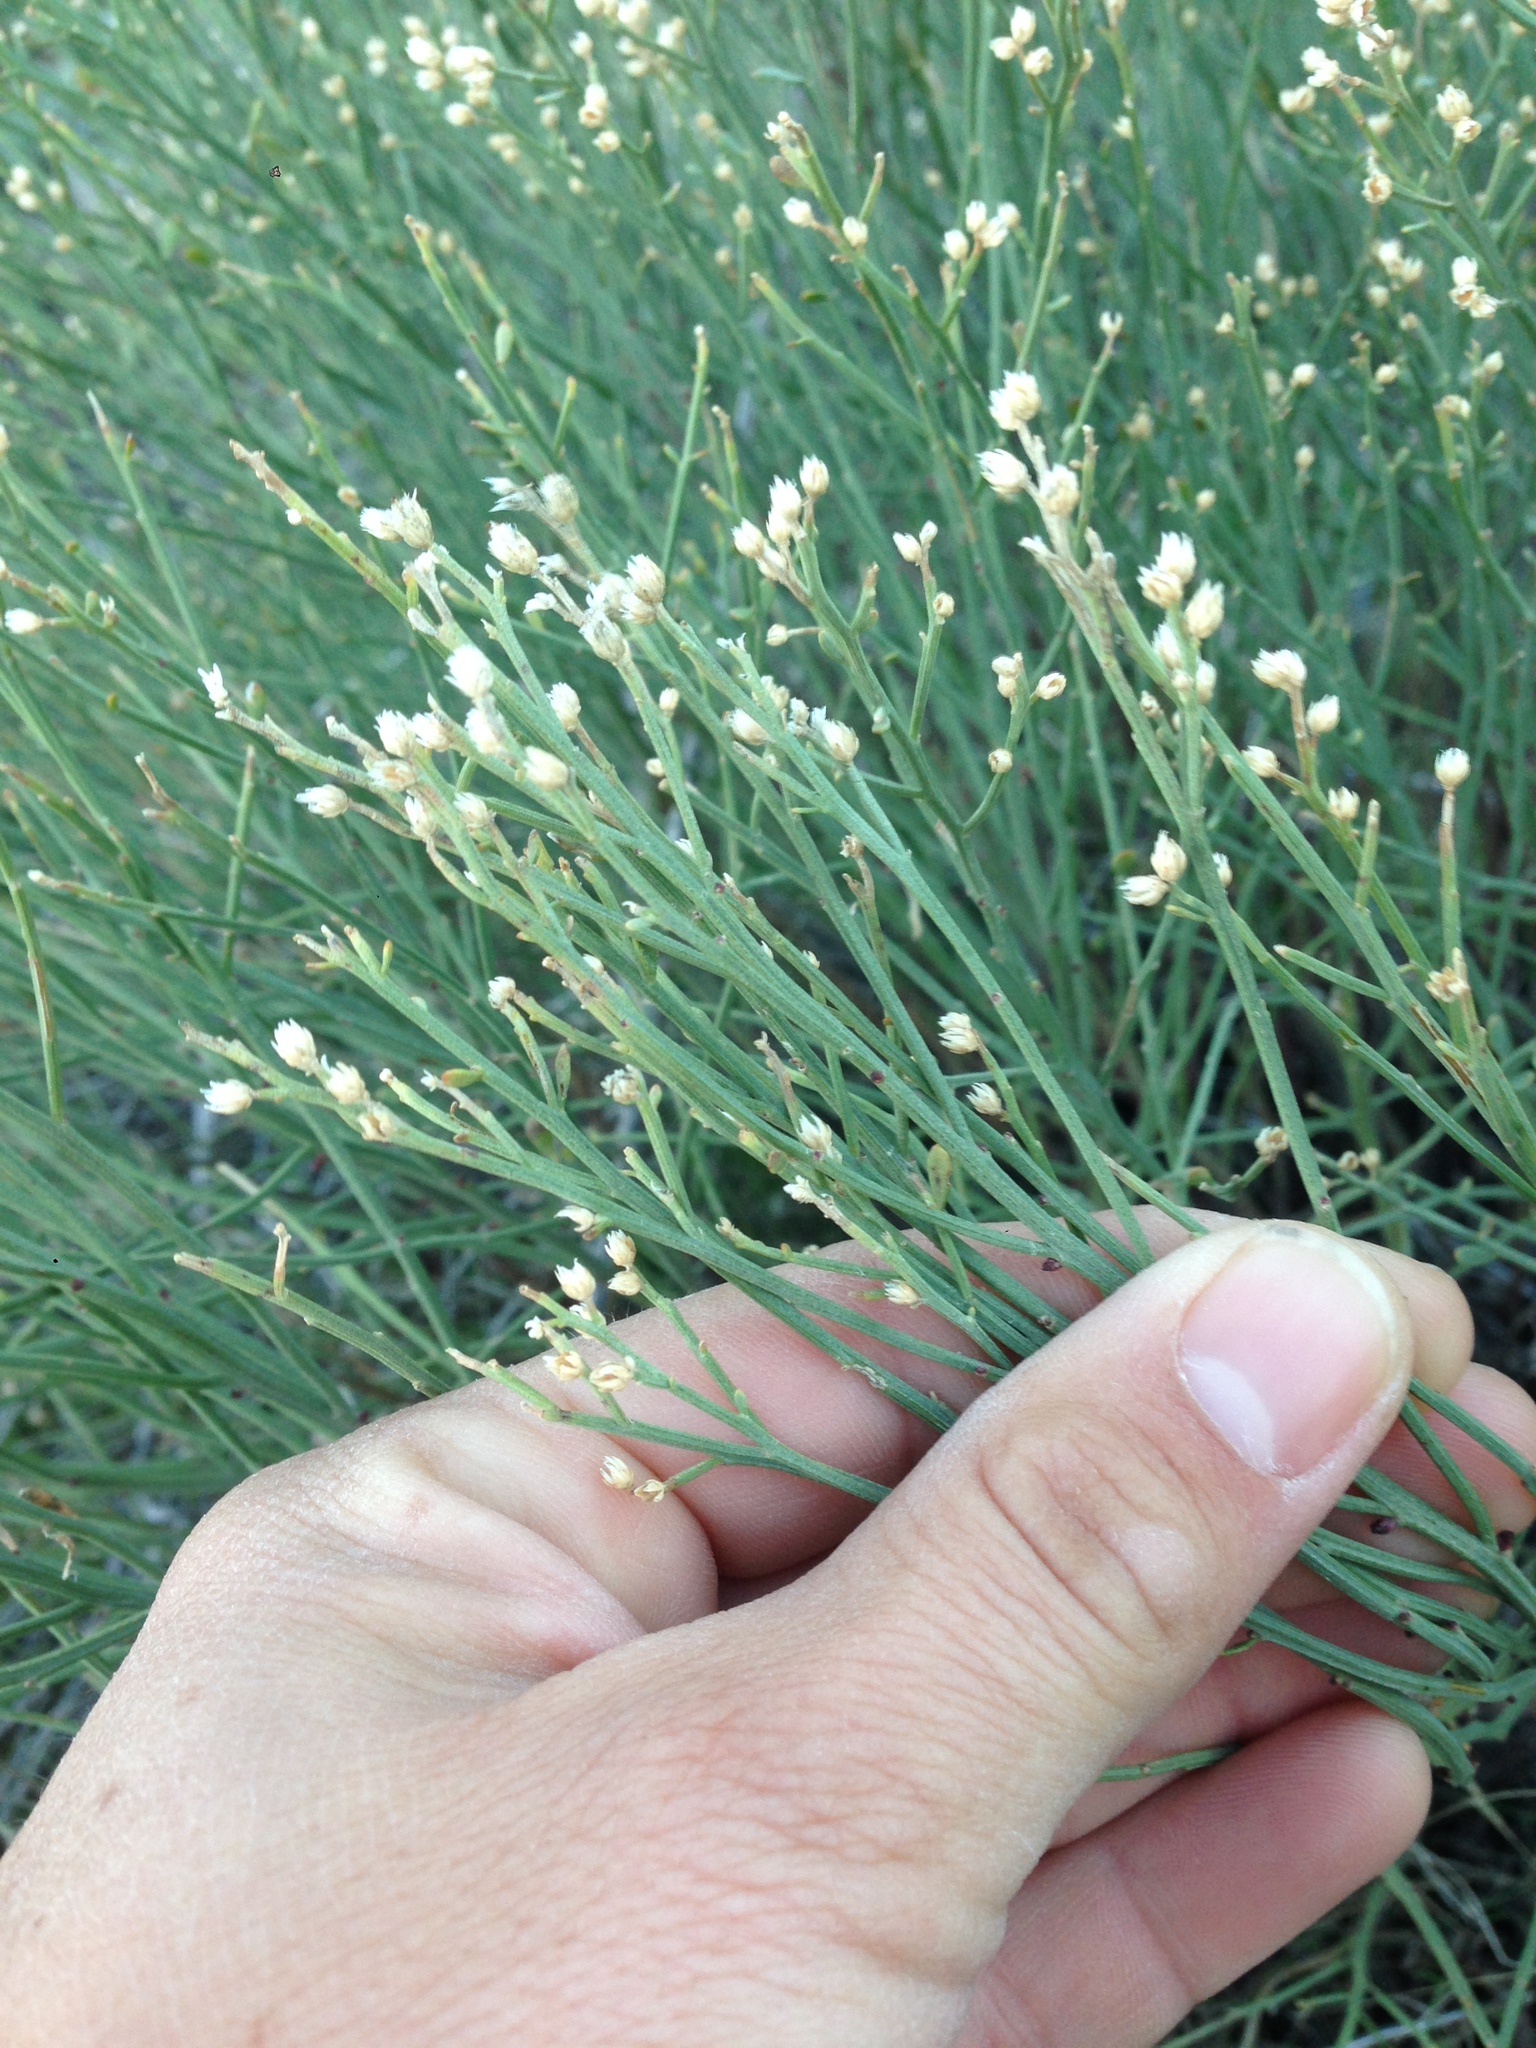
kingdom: Plantae
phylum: Tracheophyta
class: Magnoliopsida
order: Asterales
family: Asteraceae
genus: Baccharis
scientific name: Baccharis sarothroides
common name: Desert-broom
